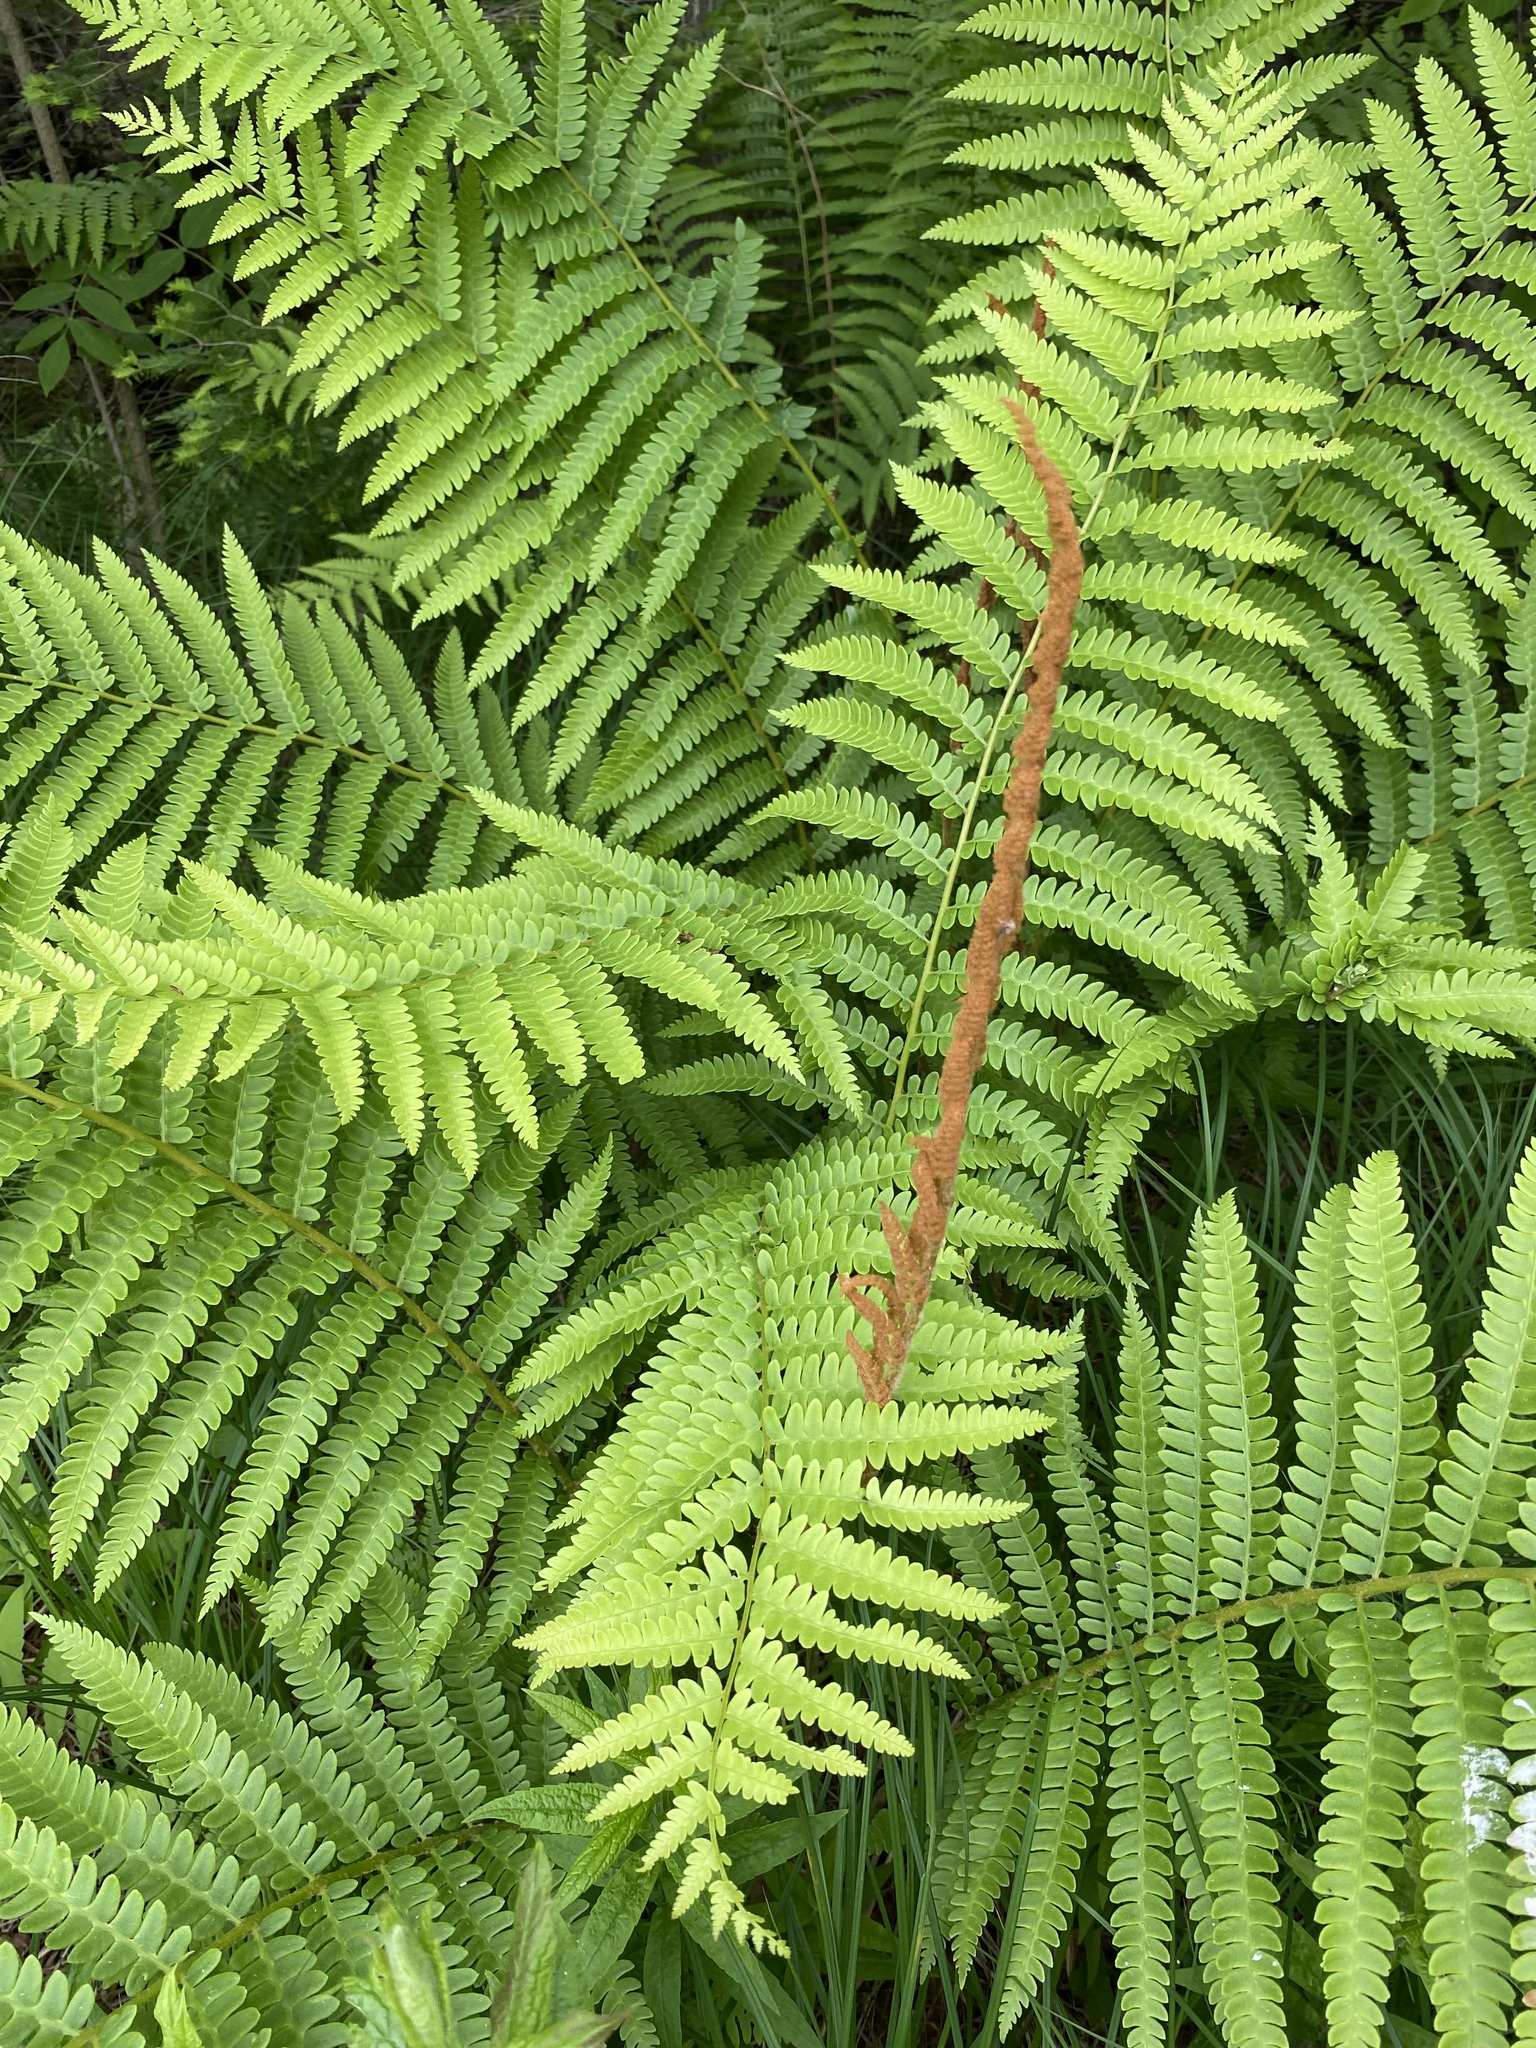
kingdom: Plantae
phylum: Tracheophyta
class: Polypodiopsida
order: Osmundales
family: Osmundaceae
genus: Osmundastrum
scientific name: Osmundastrum cinnamomeum
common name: Cinnamon fern
